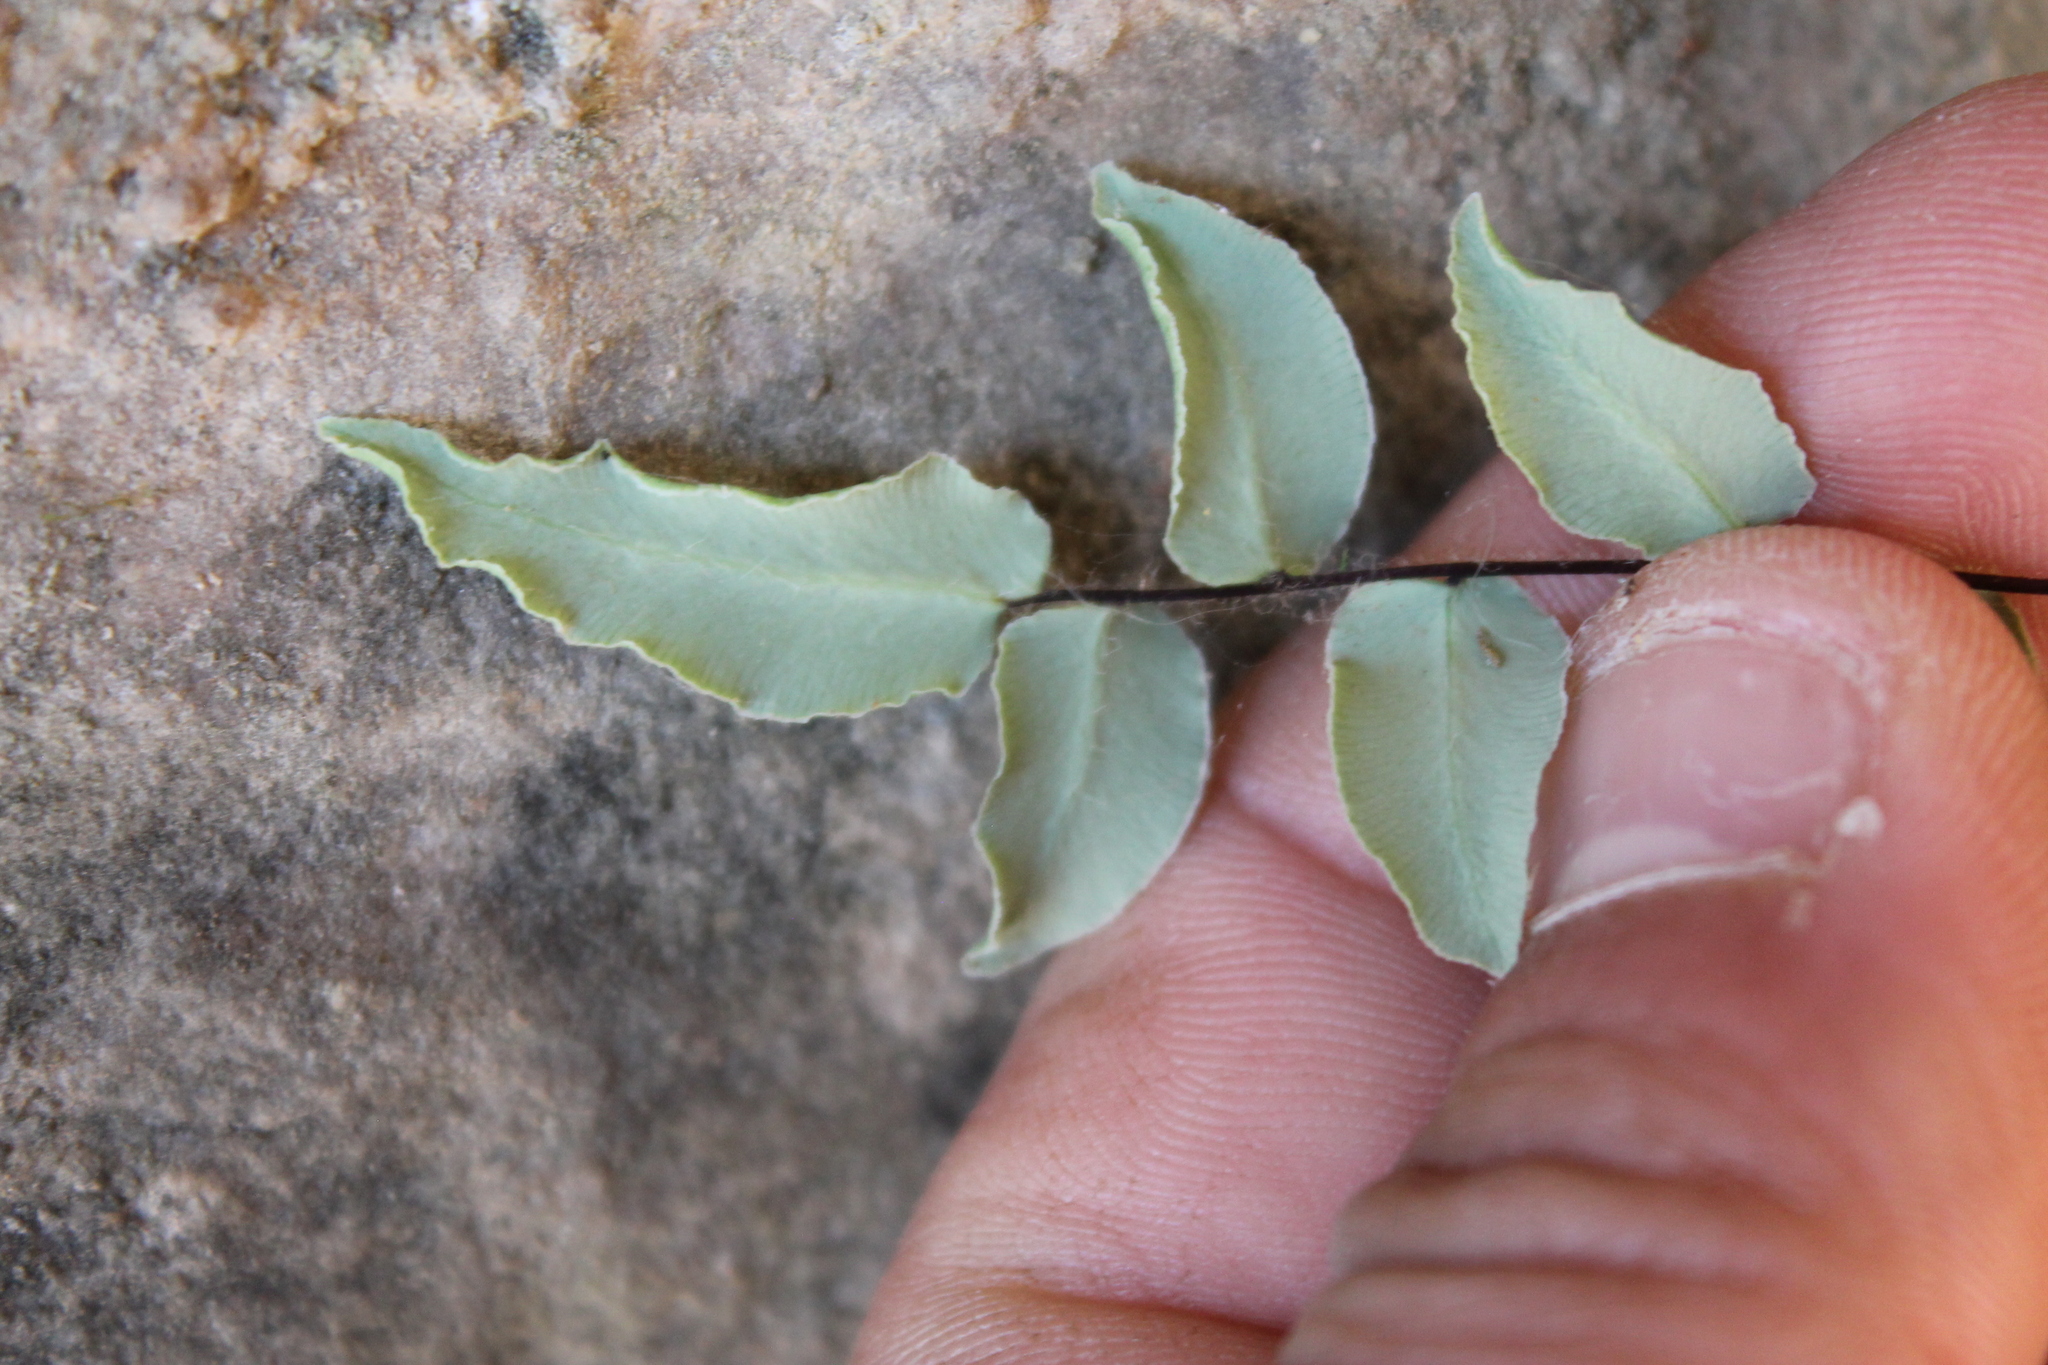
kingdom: Plantae
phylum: Tracheophyta
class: Polypodiopsida
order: Polypodiales
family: Pteridaceae
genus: Pellaea
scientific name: Pellaea atropurpurea
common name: Hairy cliffbrake
